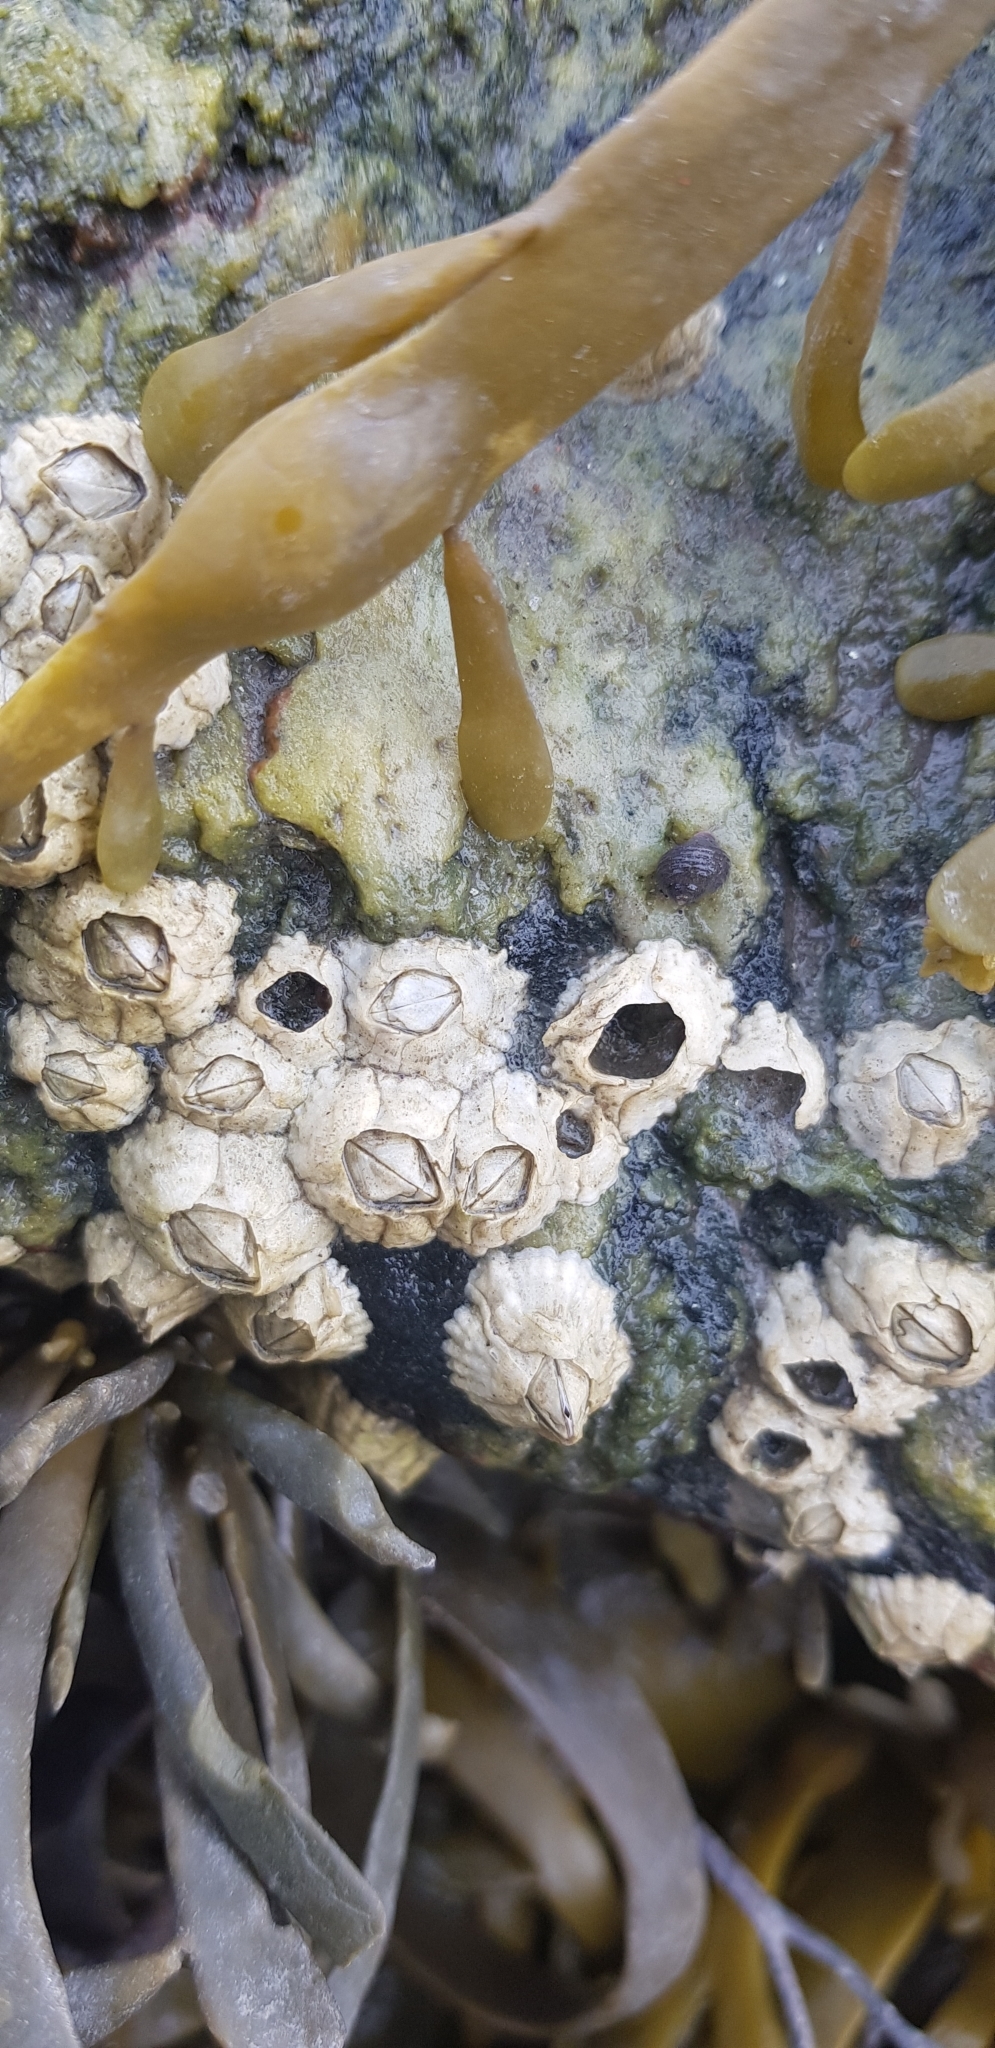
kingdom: Animalia
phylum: Arthropoda
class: Maxillopoda
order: Sessilia
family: Archaeobalanidae
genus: Semibalanus
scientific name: Semibalanus balanoides
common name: Acorn barnacle
